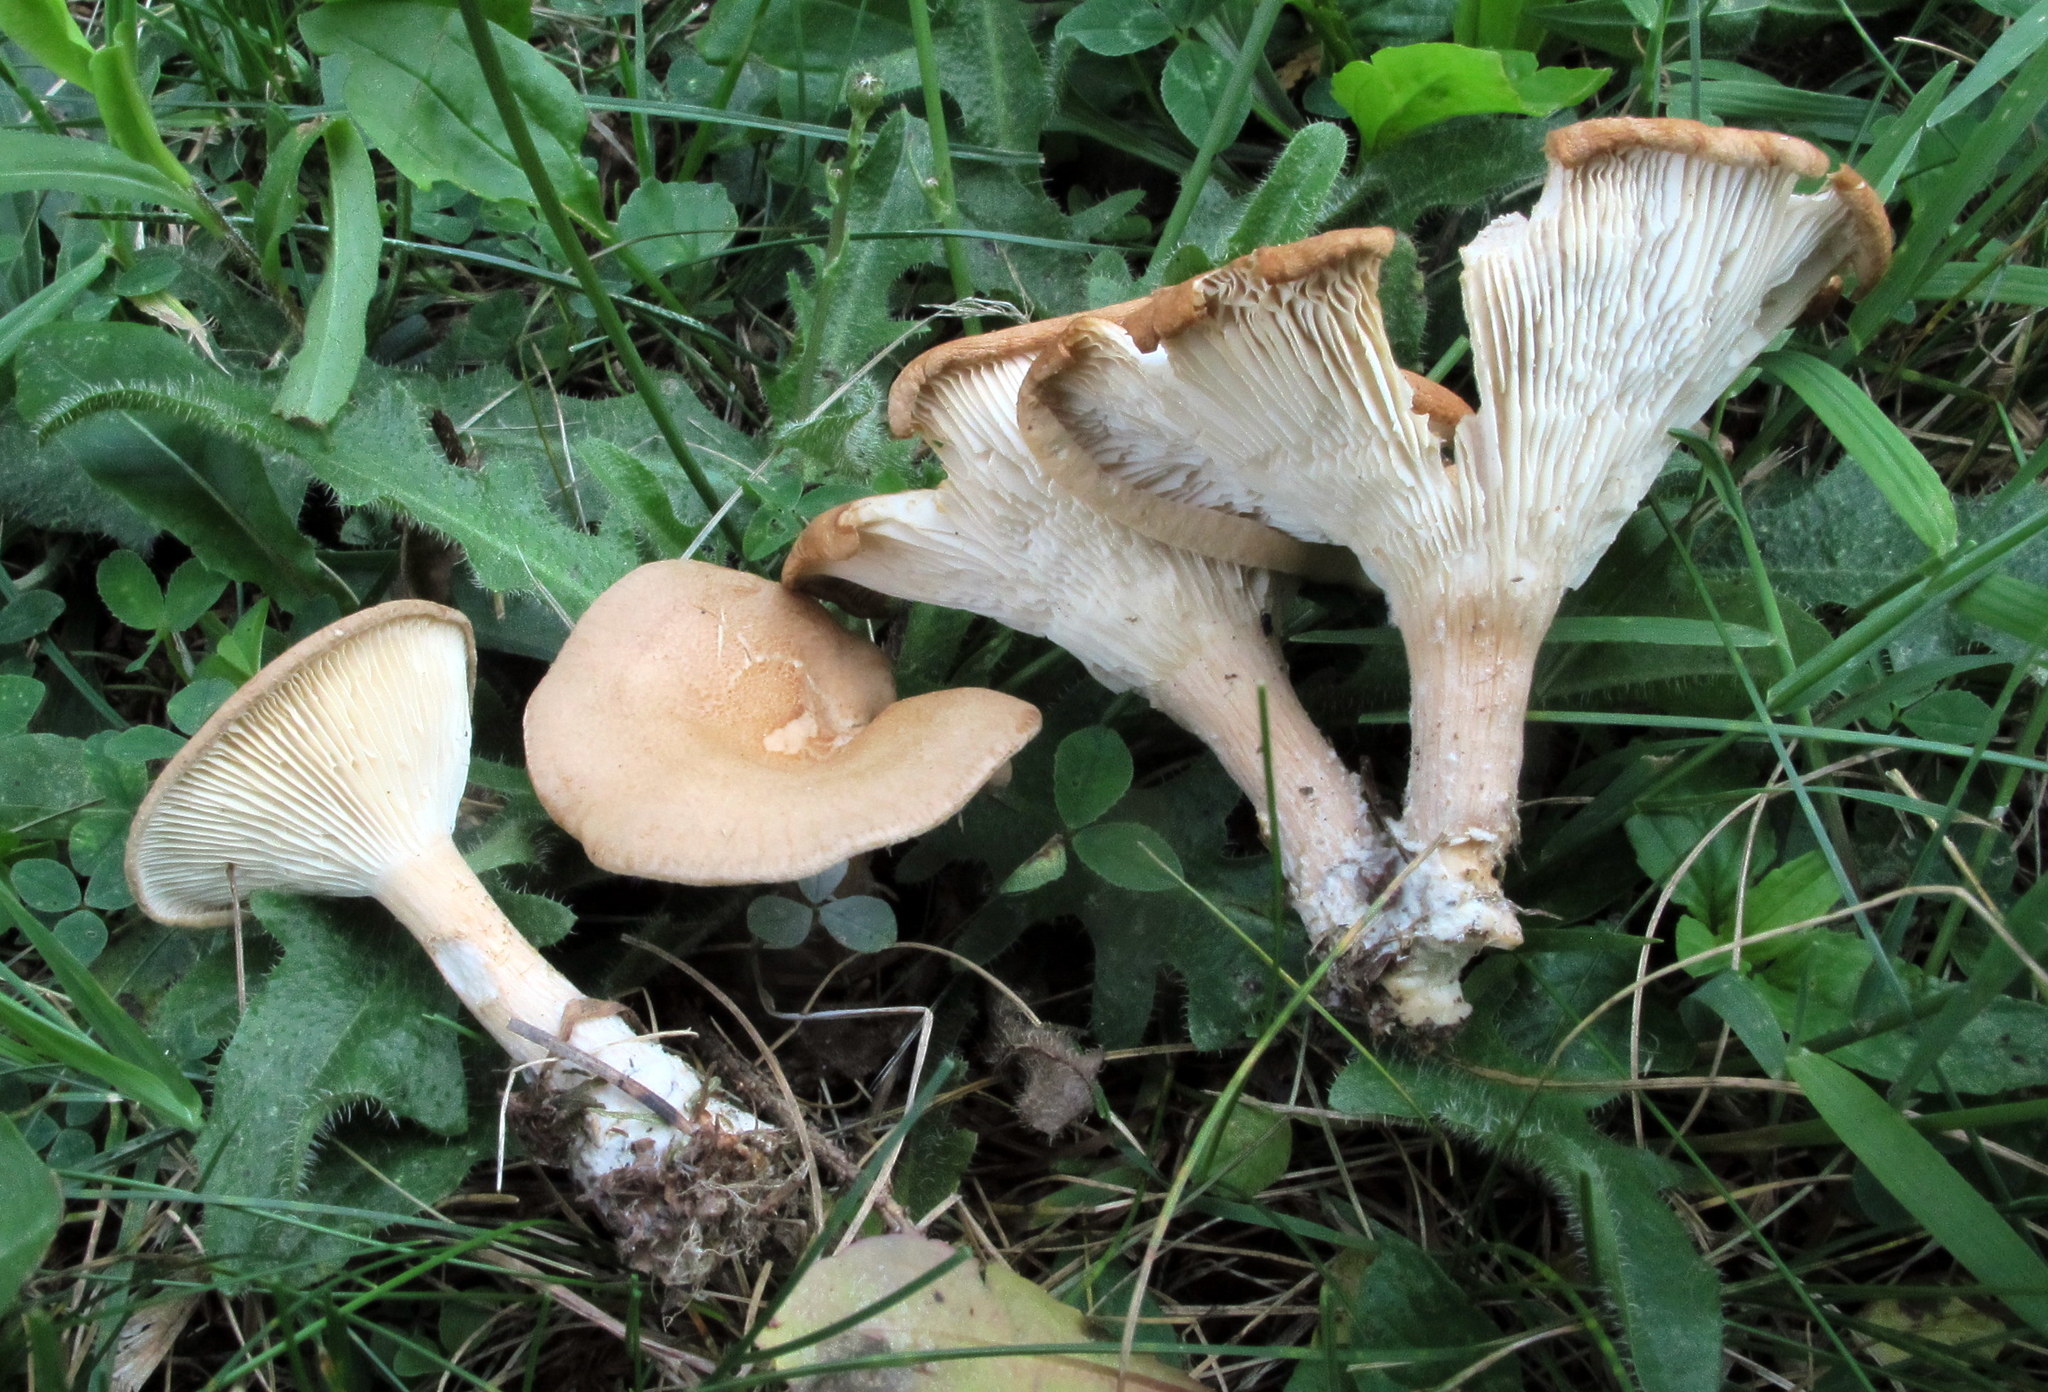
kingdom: Fungi
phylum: Basidiomycota
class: Agaricomycetes
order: Agaricales
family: Tricholomataceae
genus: Infundibulicybe
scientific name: Infundibulicybe squamulosa
